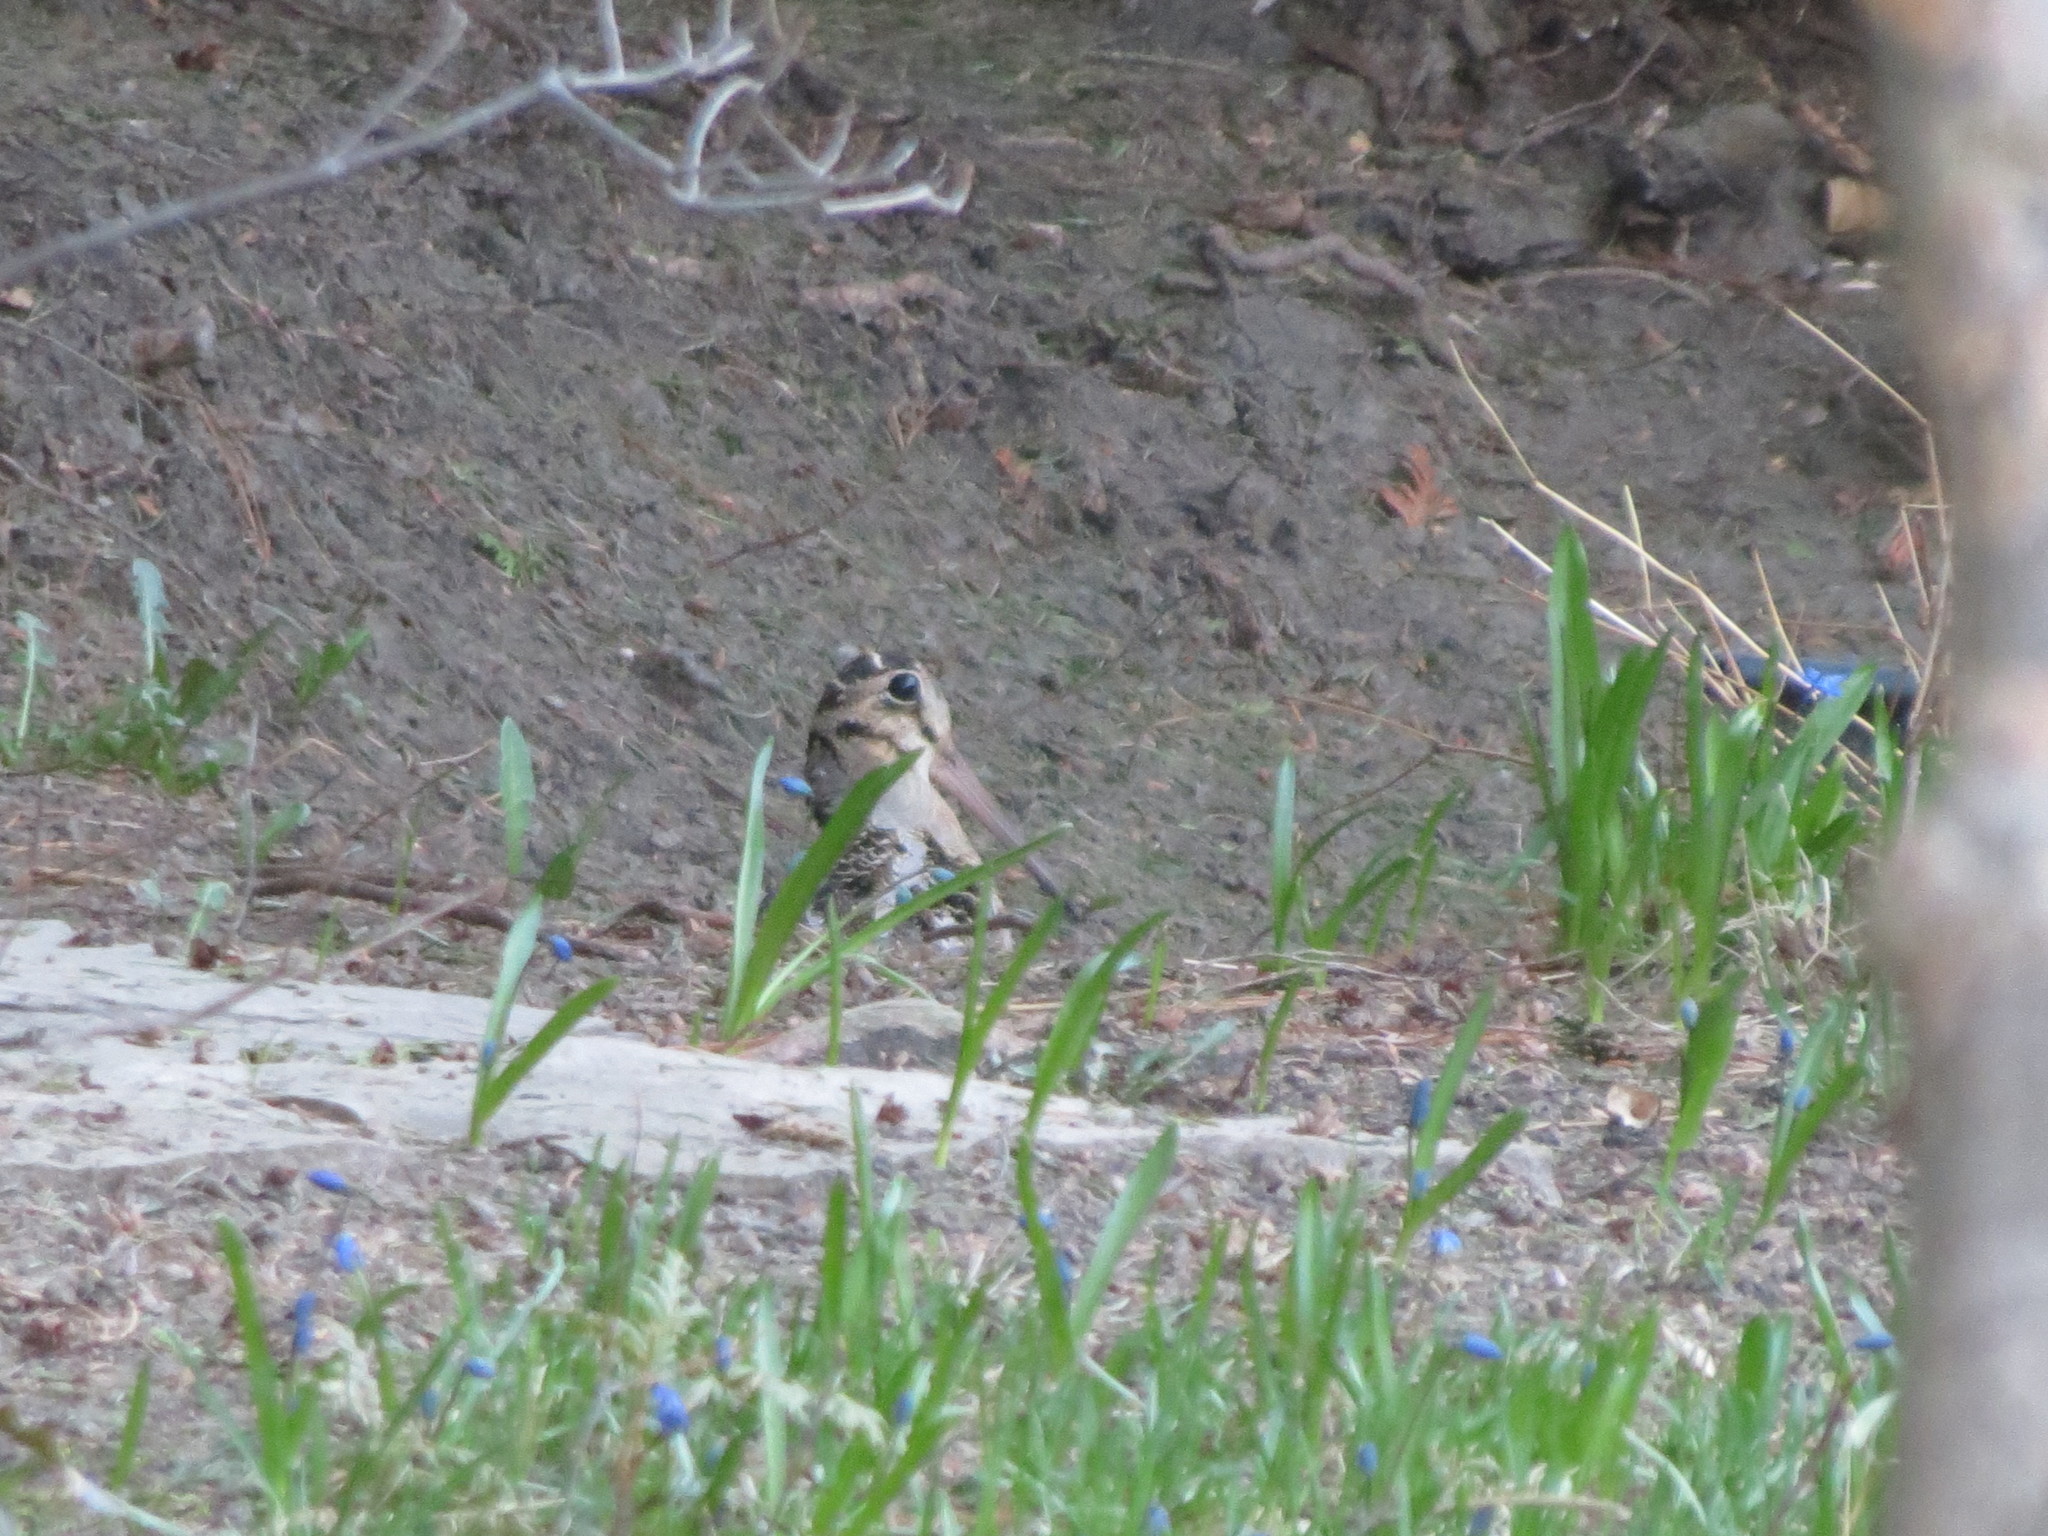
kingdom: Animalia
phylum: Chordata
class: Aves
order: Charadriiformes
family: Scolopacidae
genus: Scolopax
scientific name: Scolopax minor
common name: American woodcock
